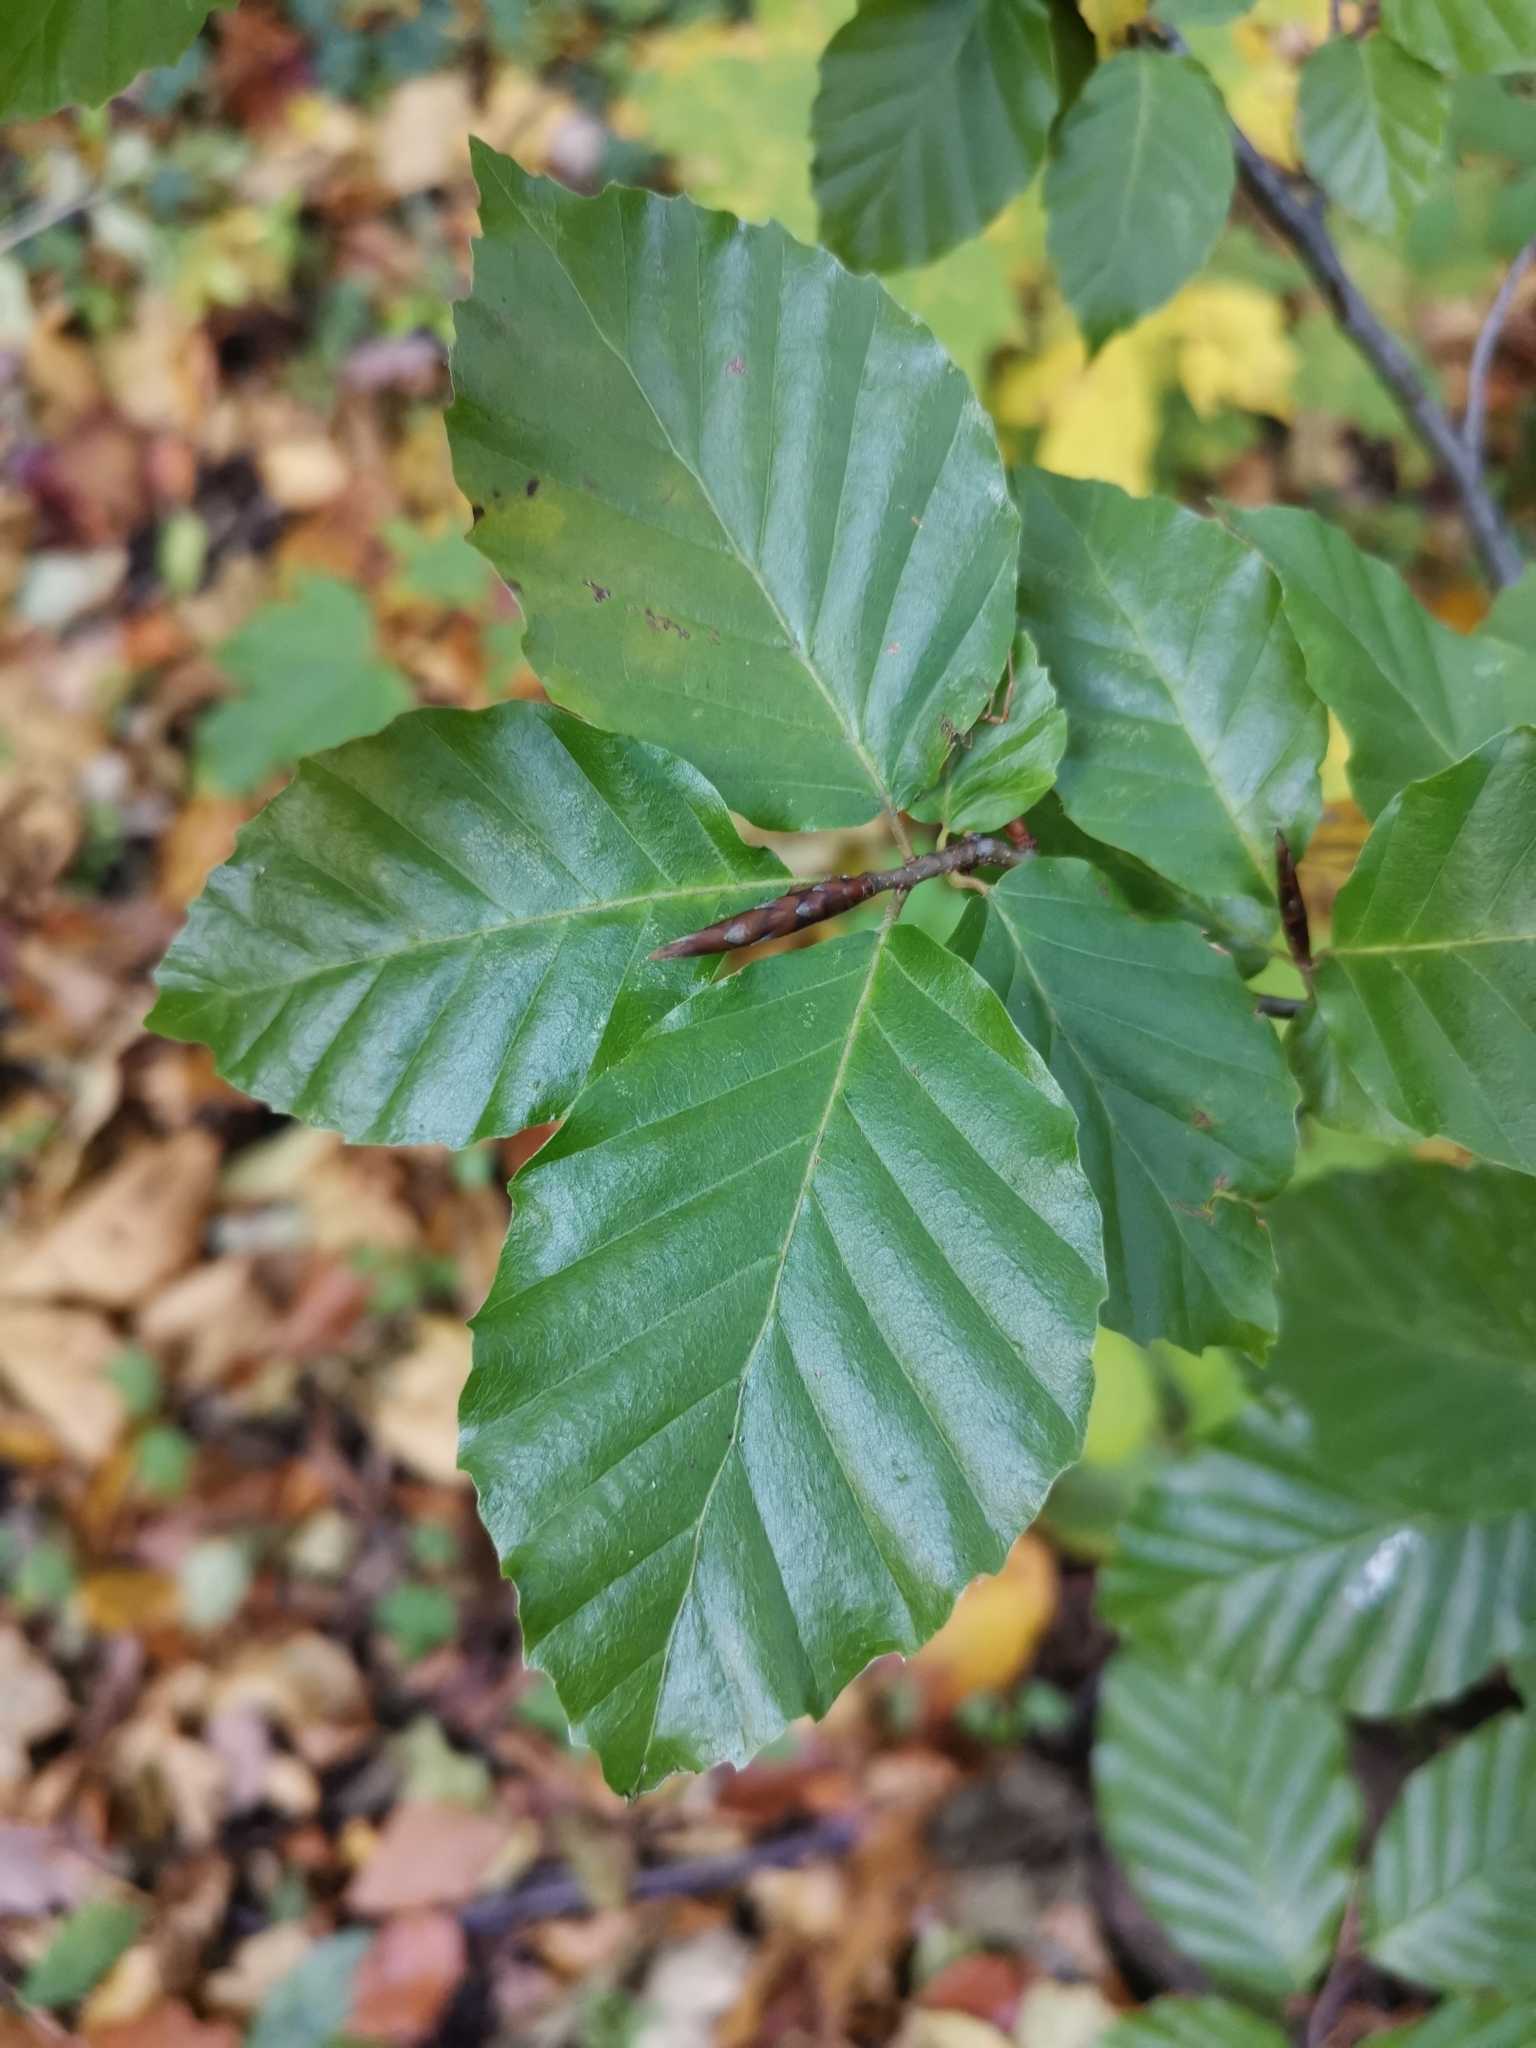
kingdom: Plantae
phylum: Tracheophyta
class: Magnoliopsida
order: Fagales
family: Fagaceae
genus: Fagus
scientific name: Fagus sylvatica
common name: Beech
